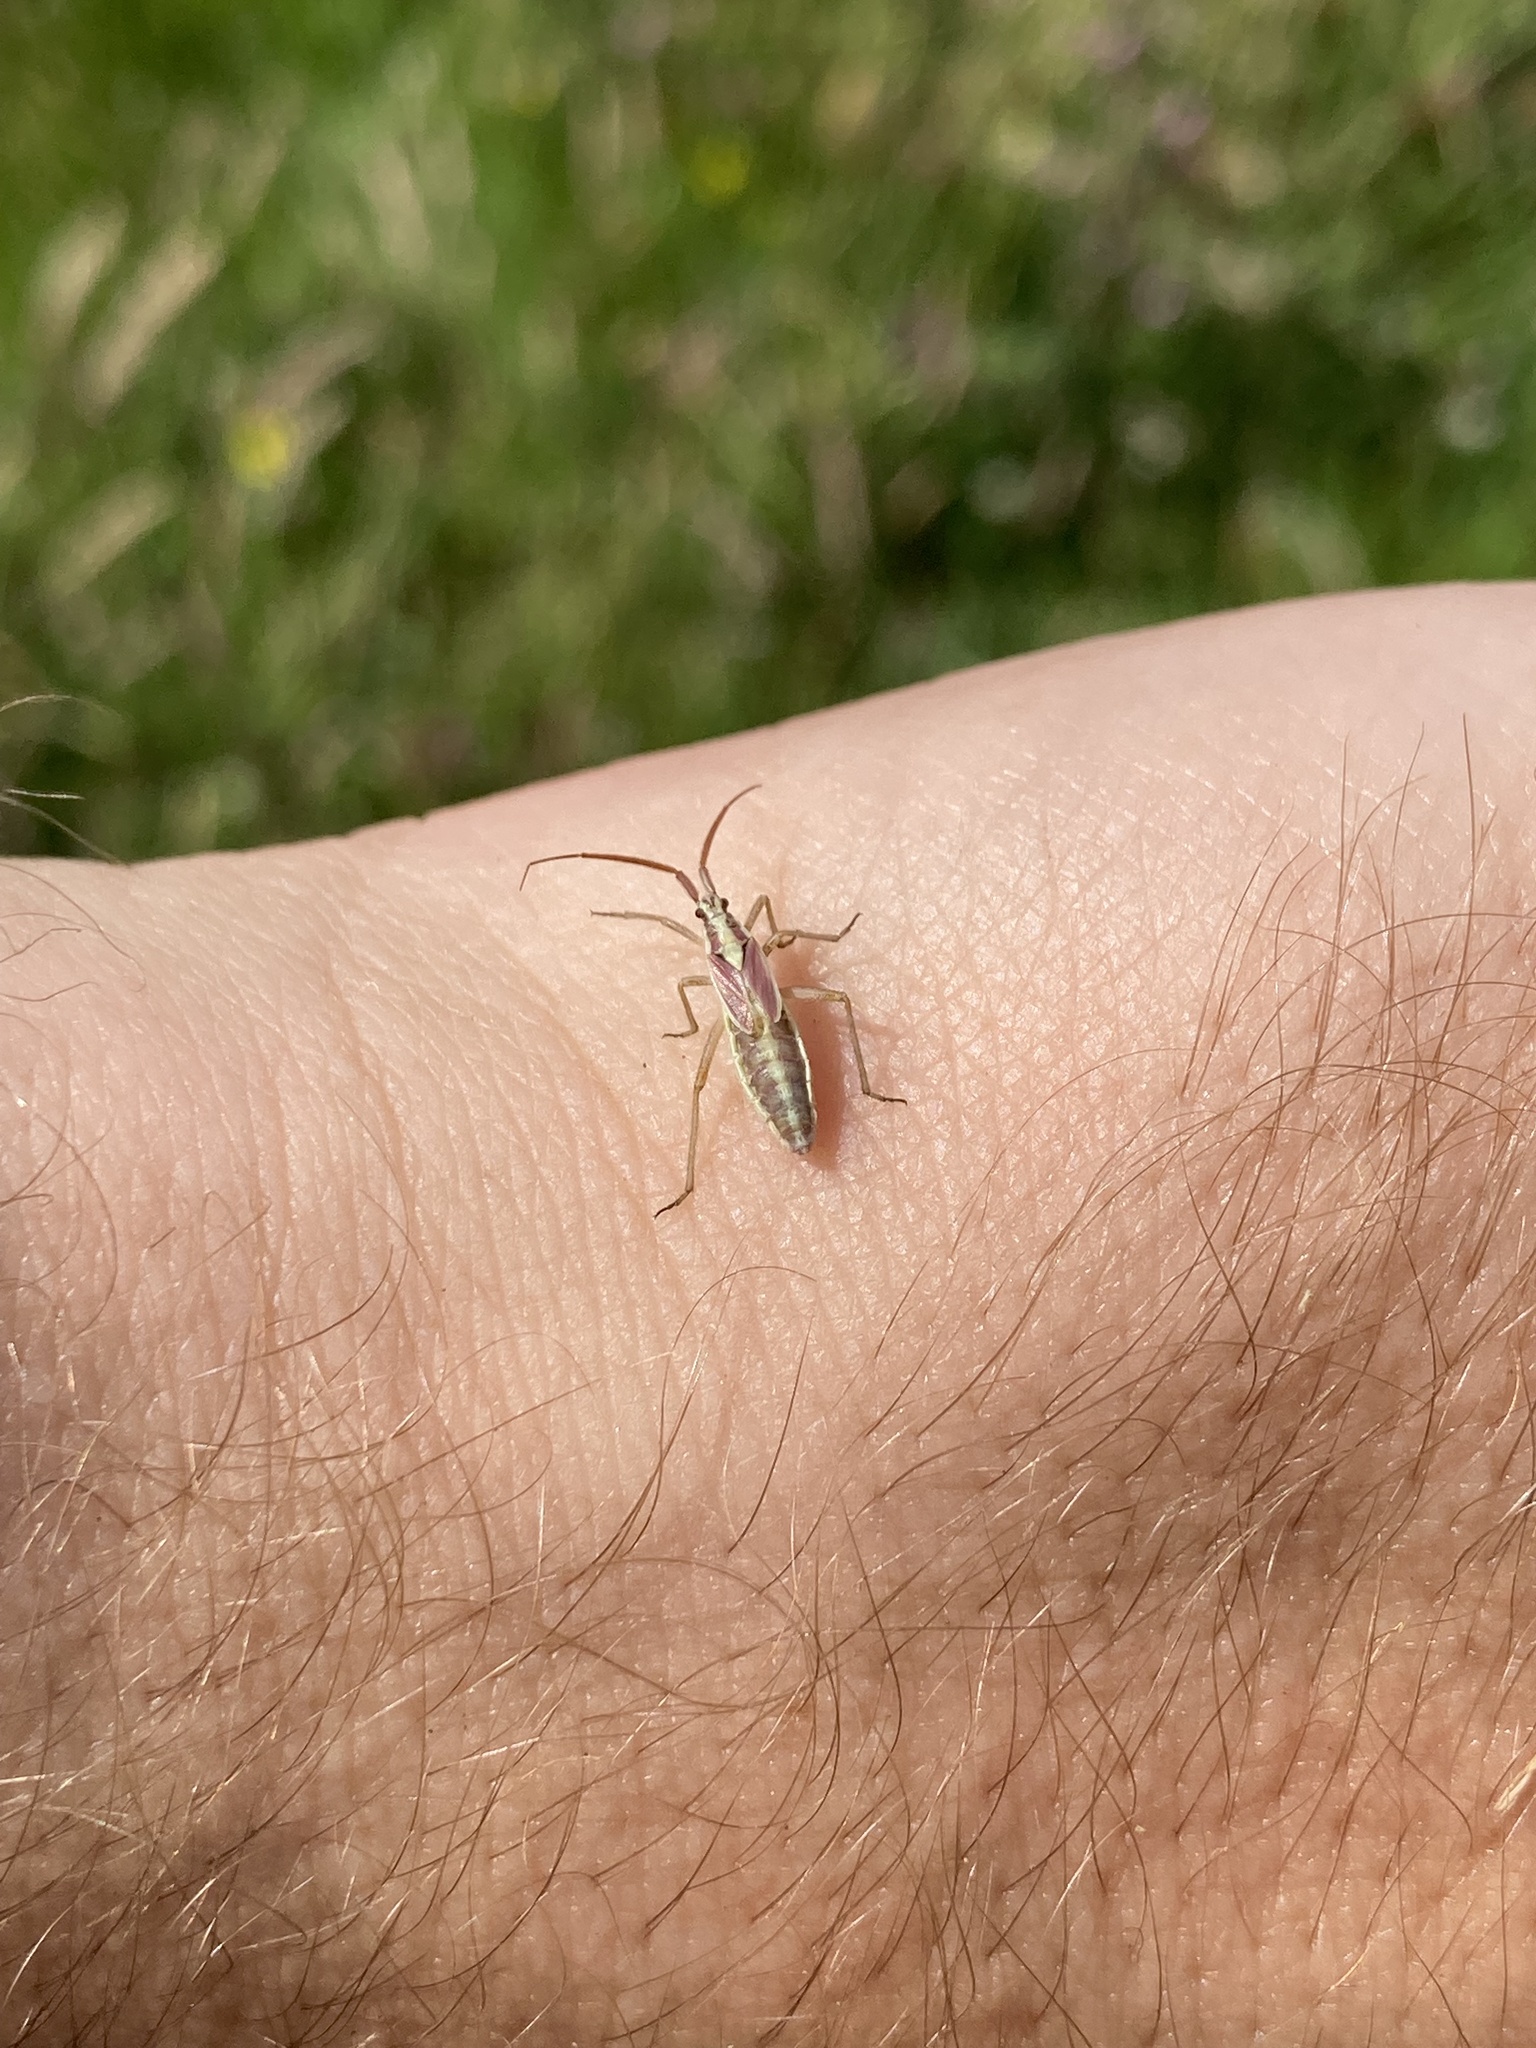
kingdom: Animalia
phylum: Arthropoda
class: Insecta
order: Hemiptera
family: Miridae
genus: Leptopterna
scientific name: Leptopterna ferrugata
